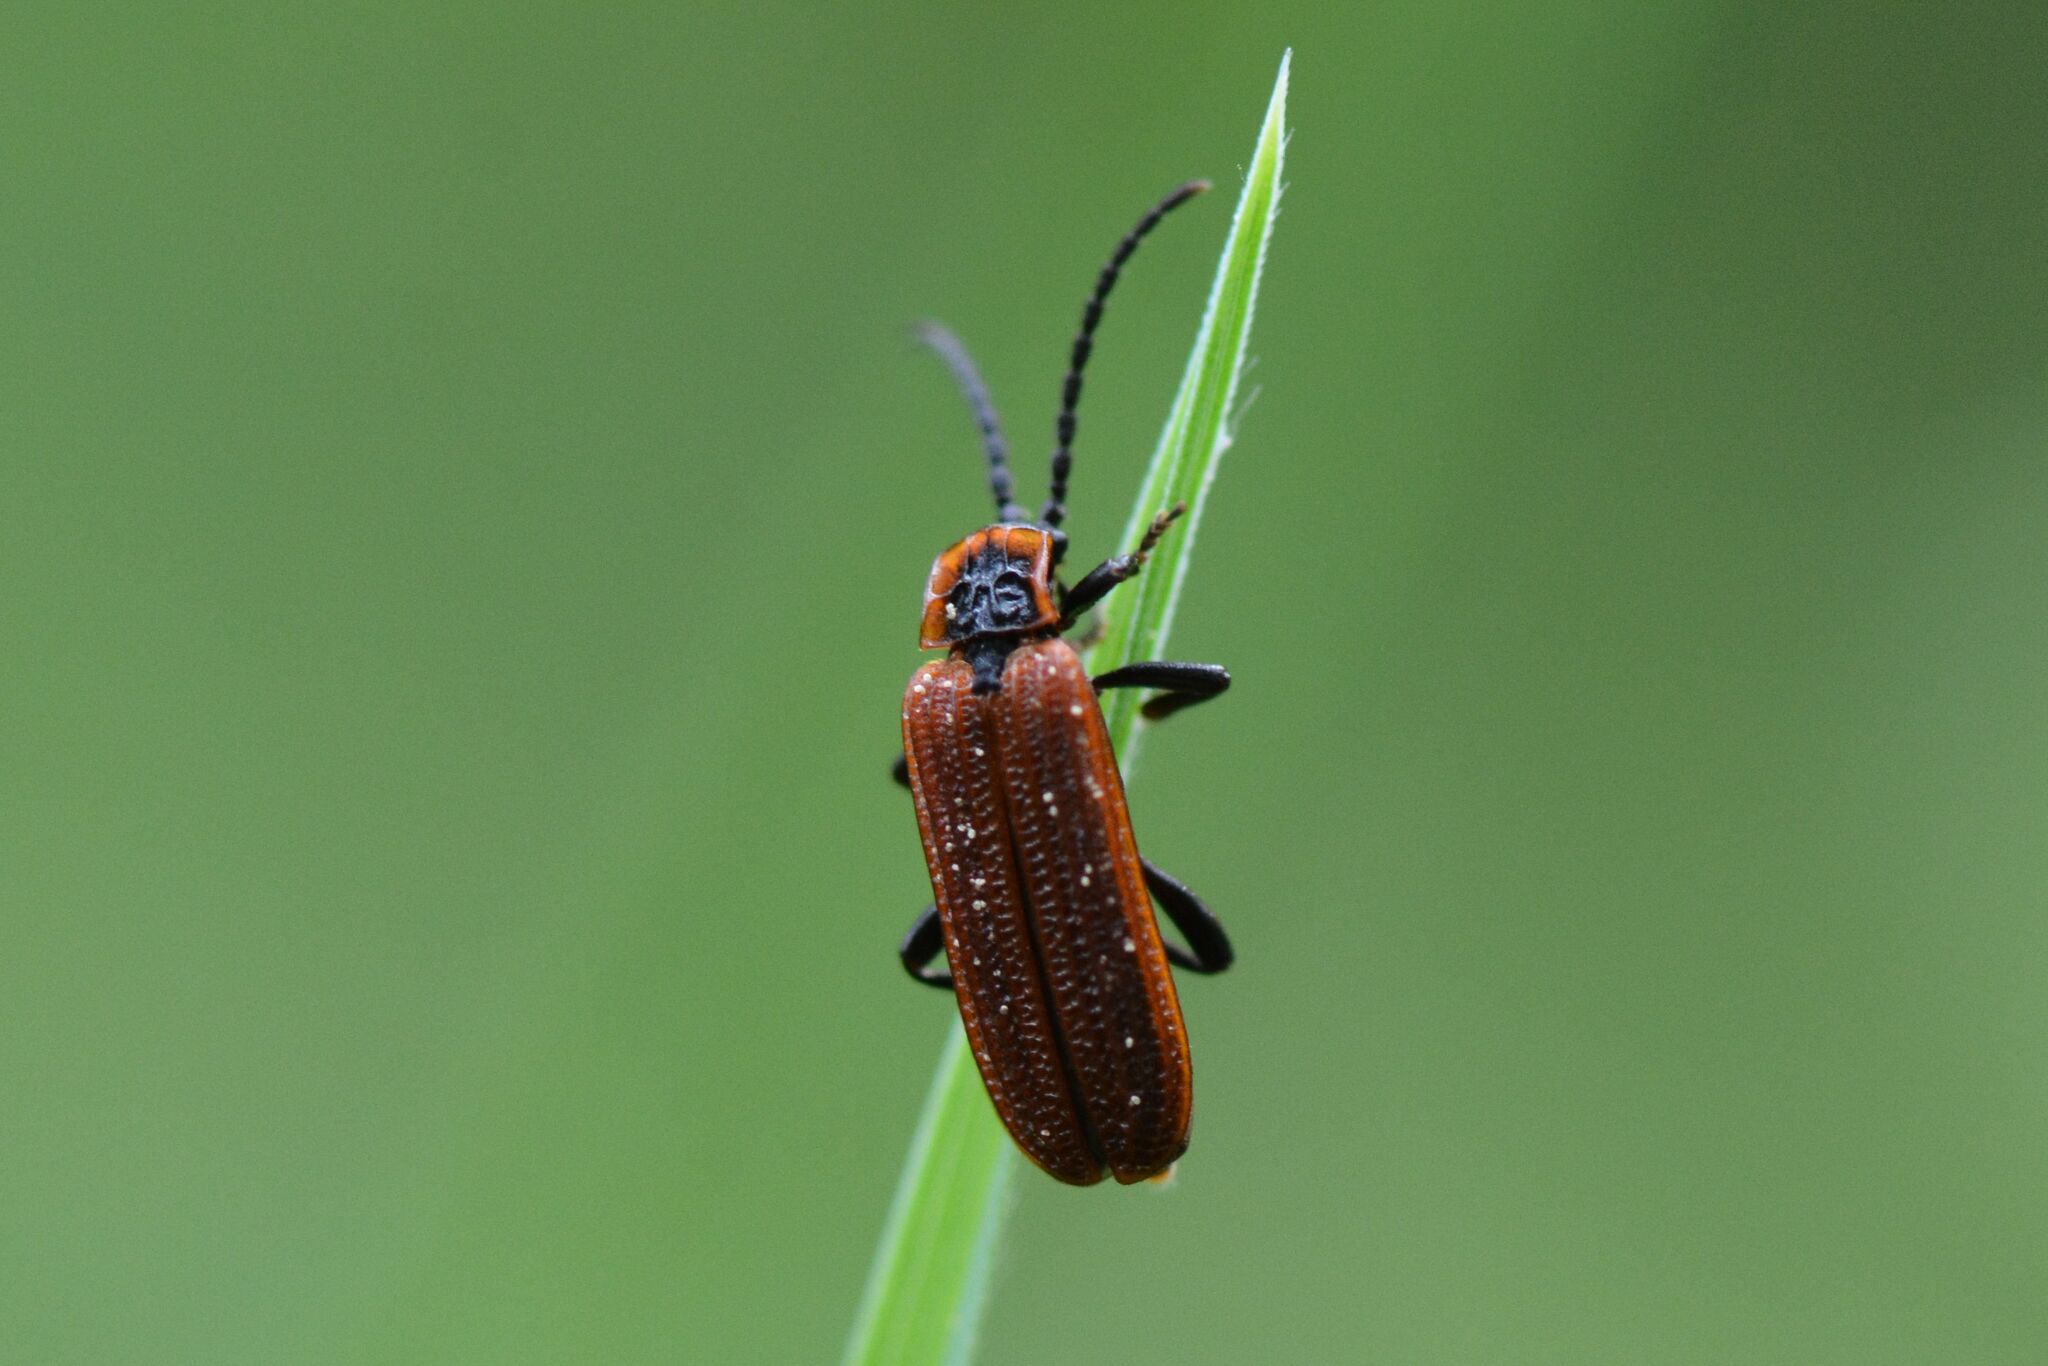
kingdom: Animalia
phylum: Arthropoda
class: Insecta
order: Coleoptera
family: Lycidae
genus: Erotides
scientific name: Erotides cosnardi
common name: Cosnard's net-winged beetle
